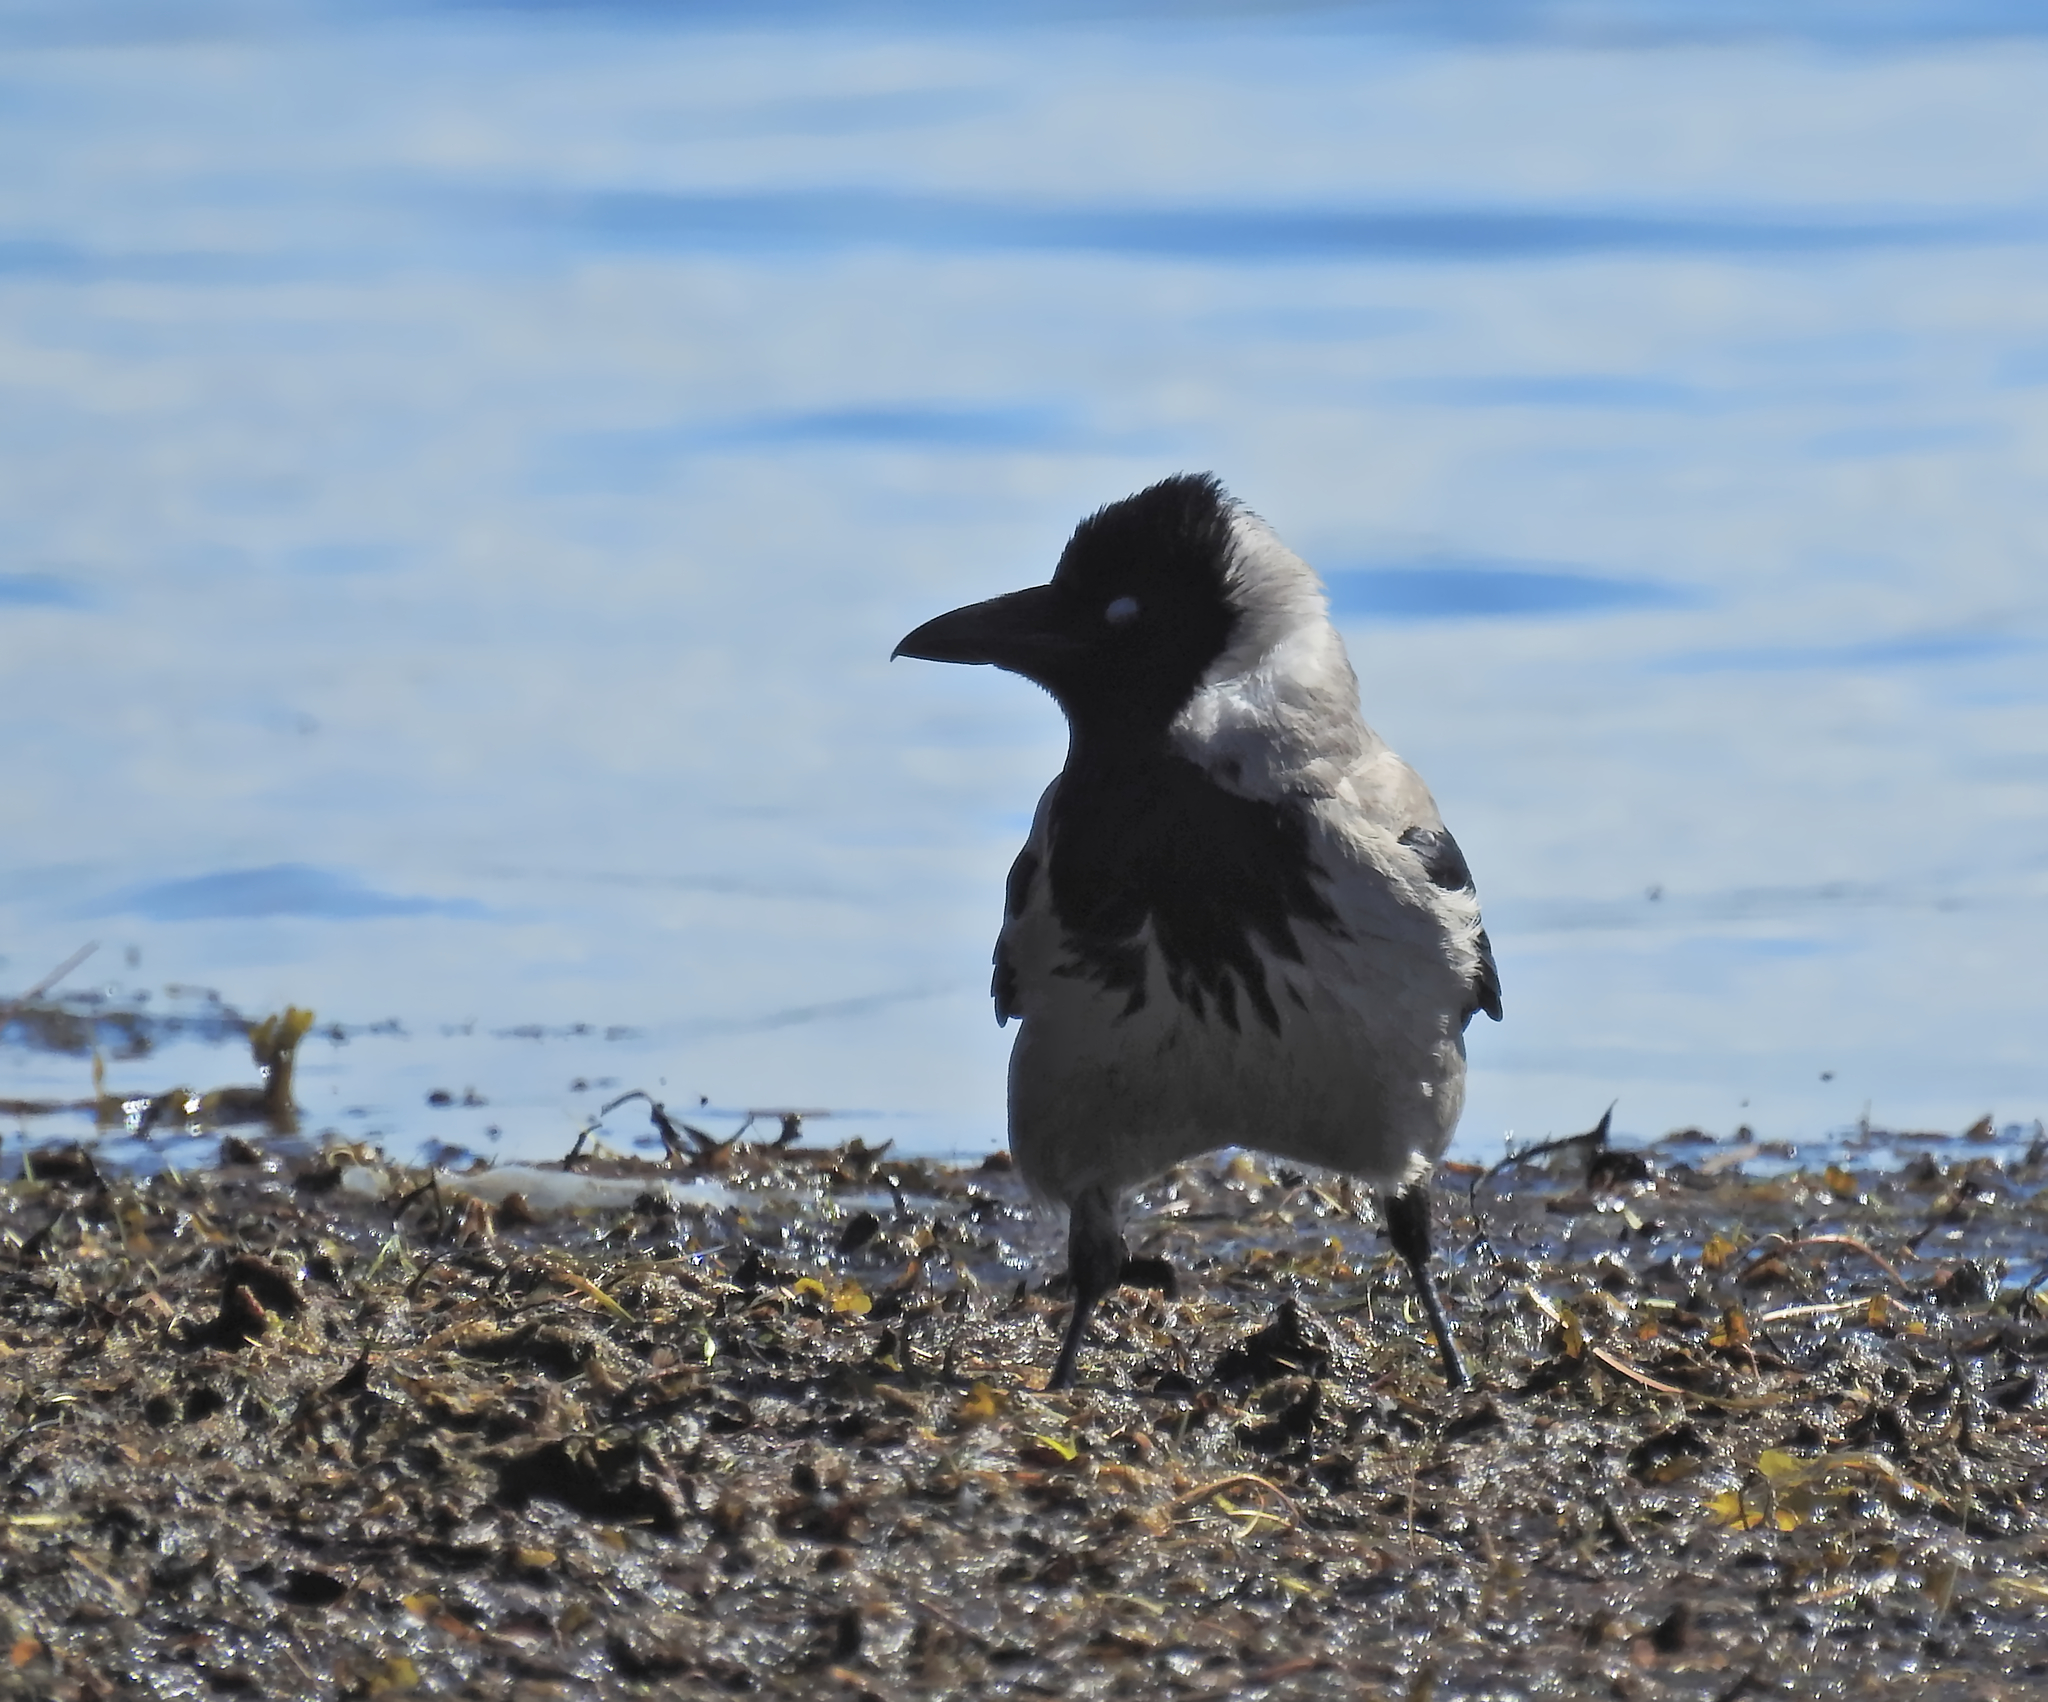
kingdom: Animalia
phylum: Chordata
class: Aves
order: Passeriformes
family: Corvidae
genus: Corvus
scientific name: Corvus cornix
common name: Hooded crow
